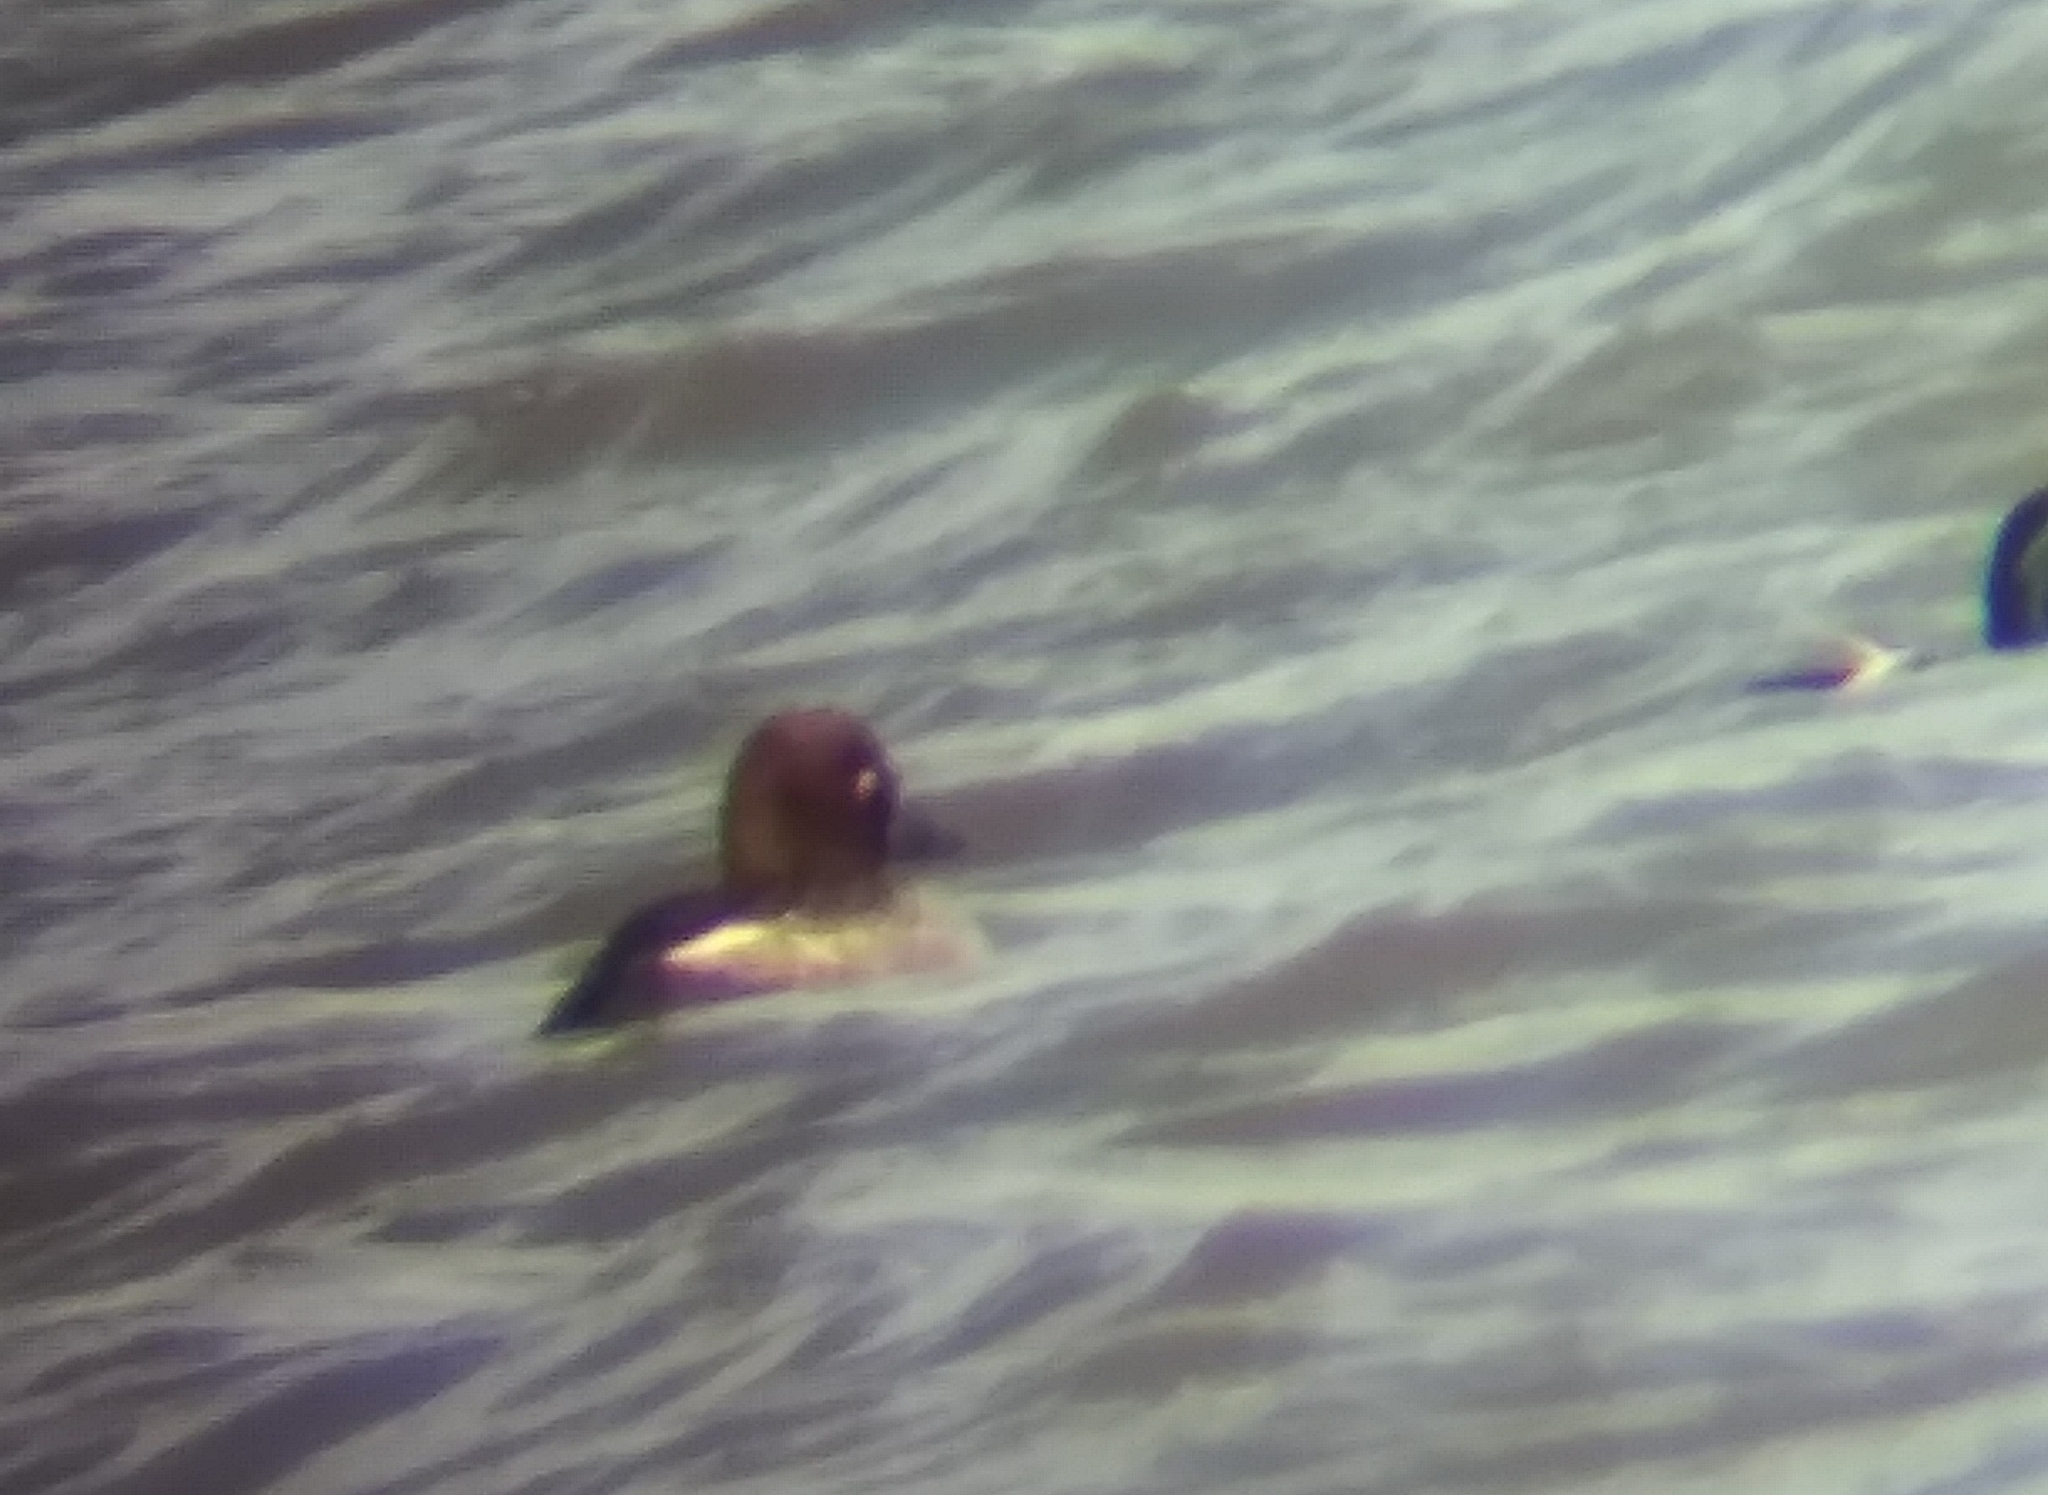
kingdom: Animalia
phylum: Chordata
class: Aves
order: Anseriformes
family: Anatidae
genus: Bucephala
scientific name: Bucephala clangula
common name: Common goldeneye
